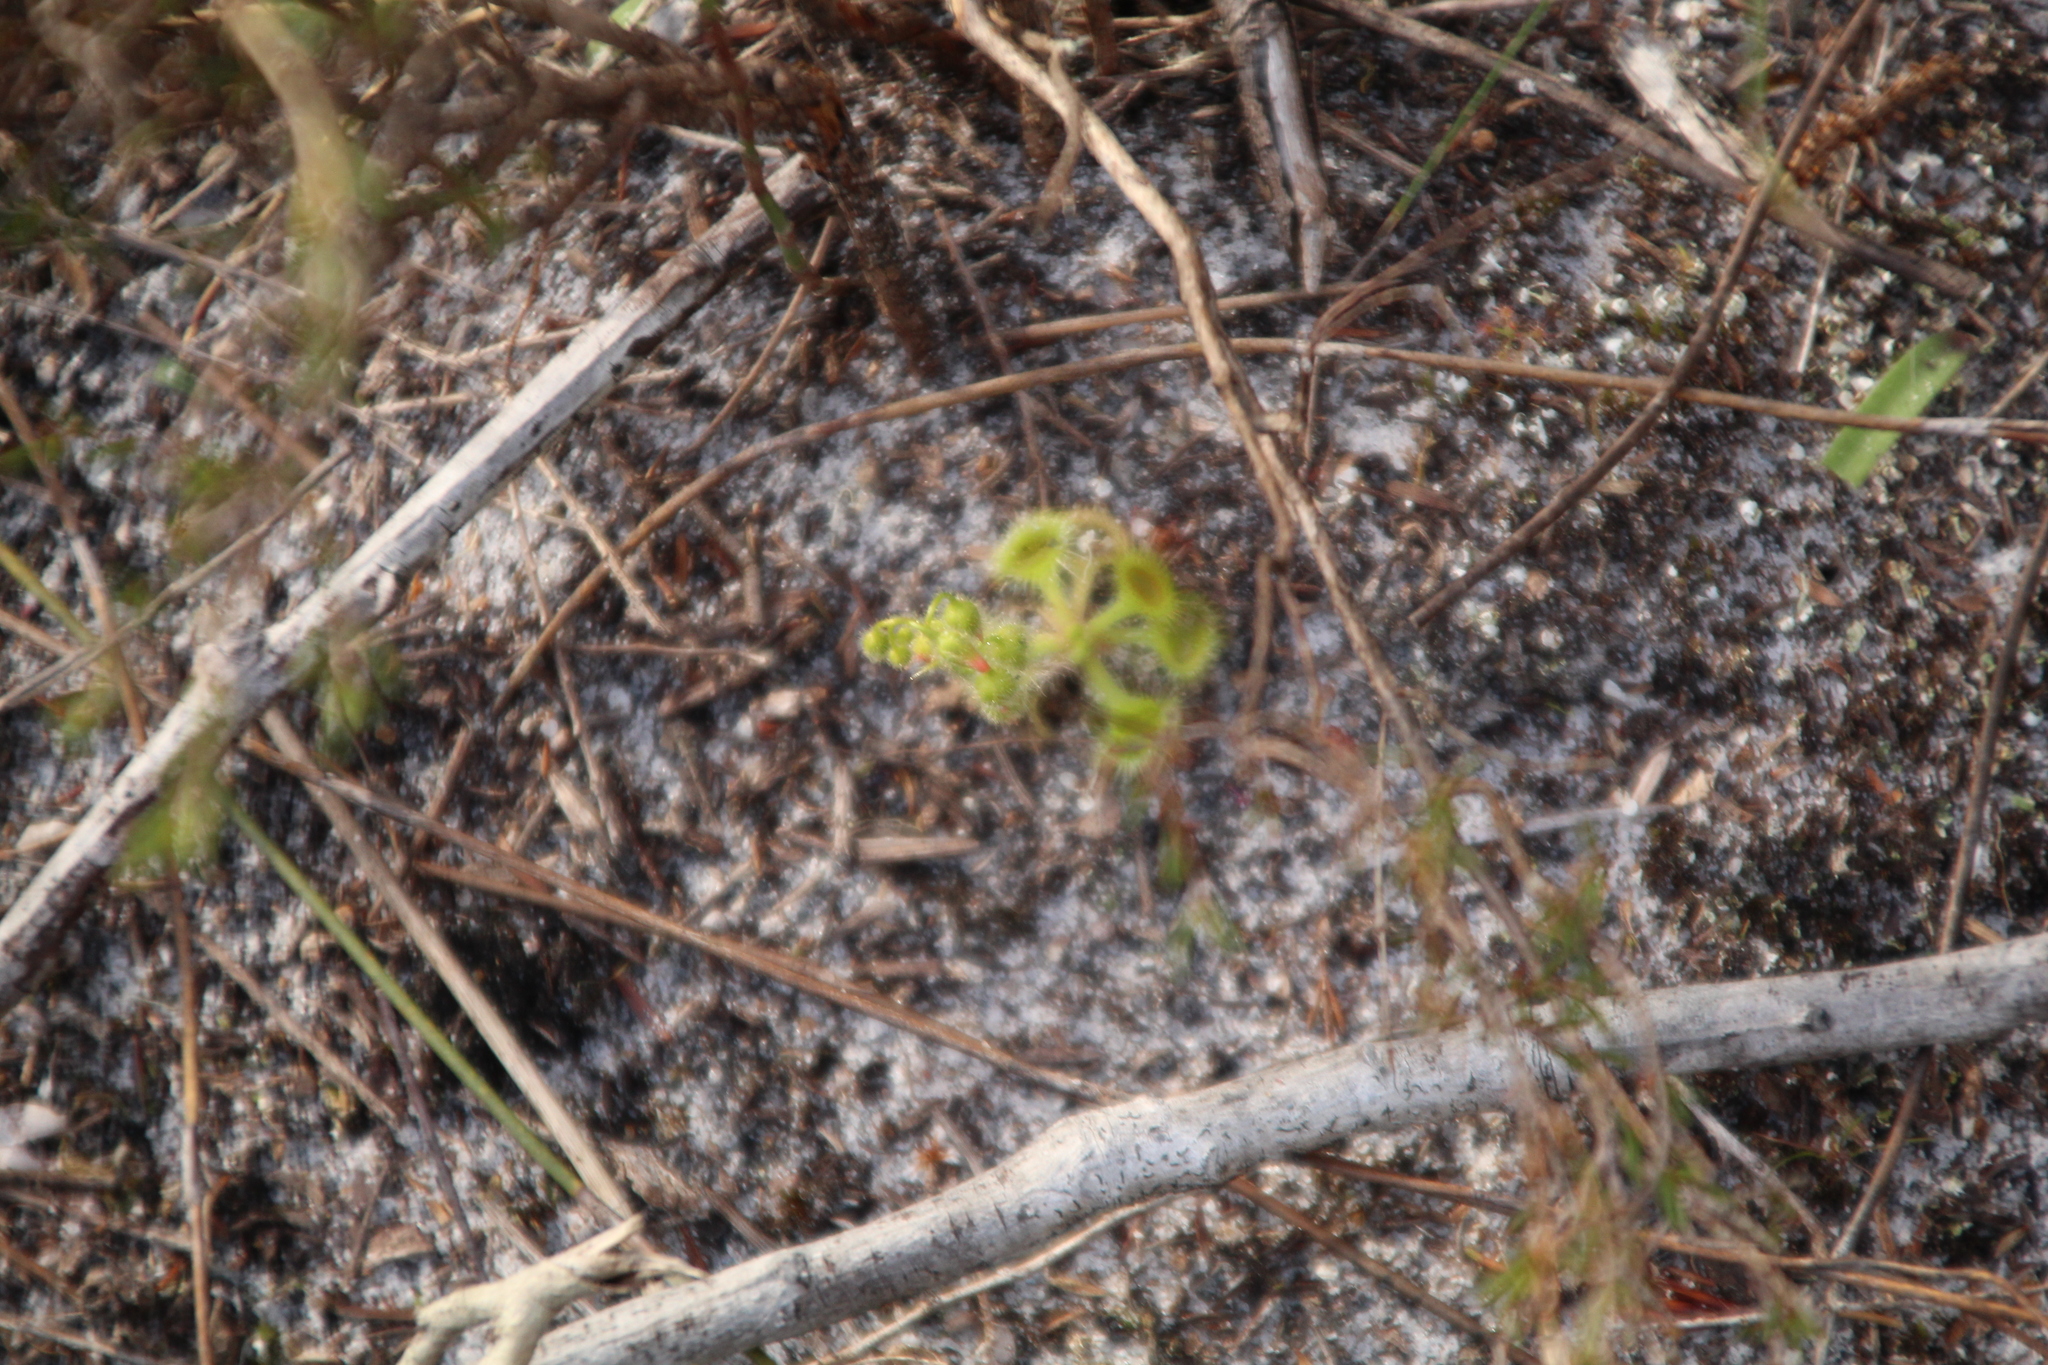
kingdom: Plantae
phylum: Tracheophyta
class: Magnoliopsida
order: Caryophyllales
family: Droseraceae
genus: Drosera
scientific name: Drosera glanduligera
